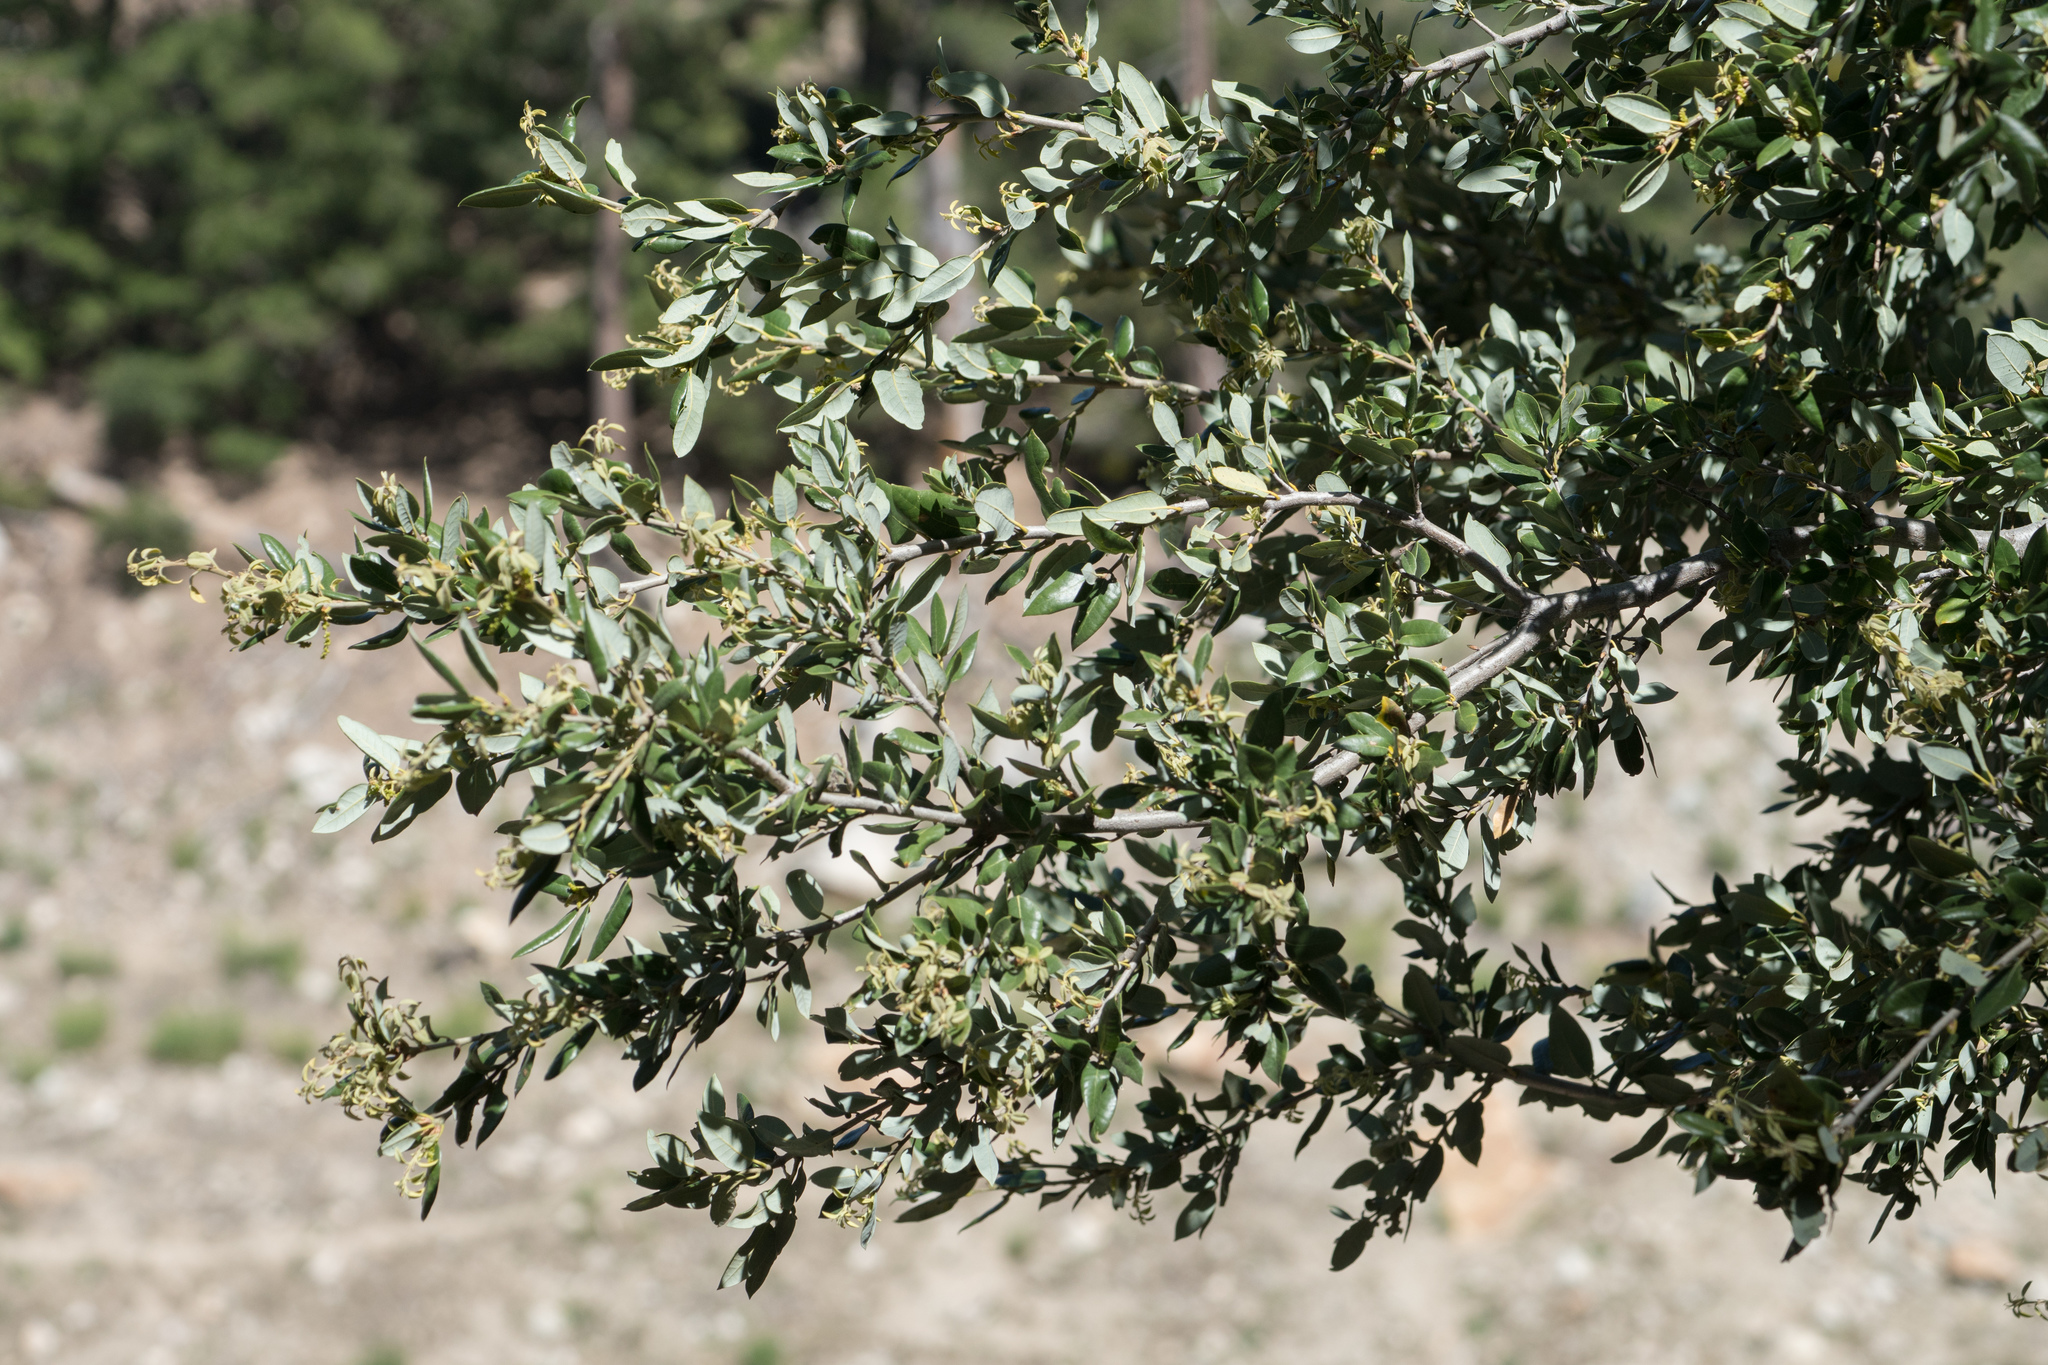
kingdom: Plantae
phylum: Tracheophyta
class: Magnoliopsida
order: Fagales
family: Fagaceae
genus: Quercus
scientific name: Quercus chrysolepis
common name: Canyon live oak
